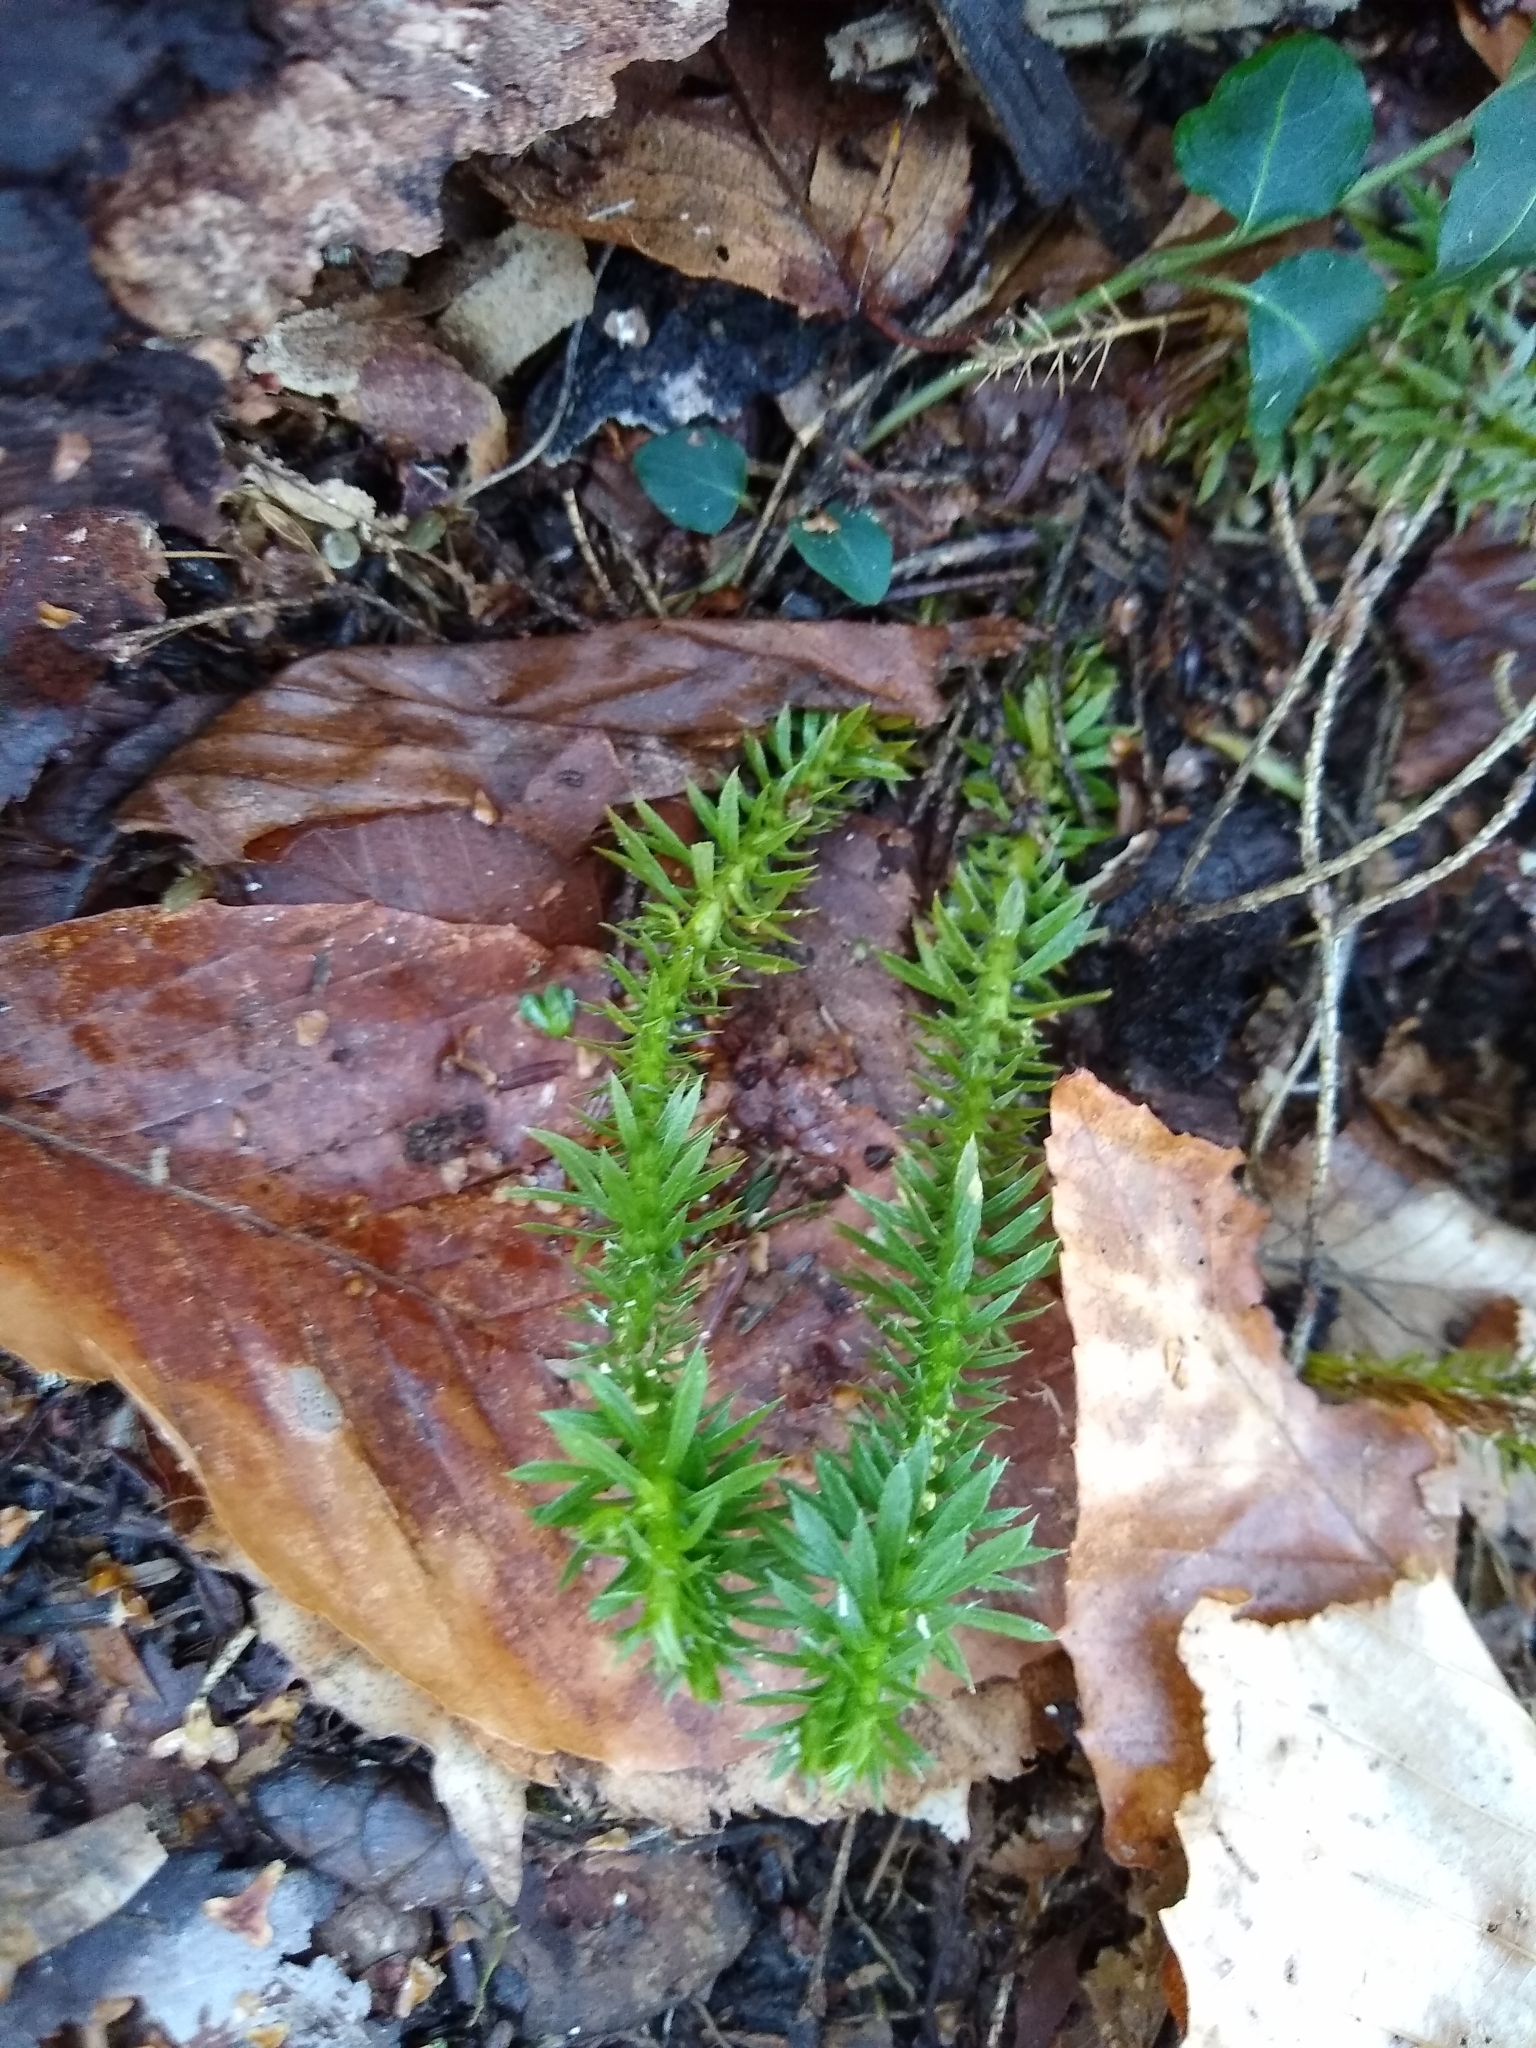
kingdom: Plantae
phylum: Tracheophyta
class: Lycopodiopsida
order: Lycopodiales
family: Lycopodiaceae
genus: Huperzia
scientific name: Huperzia lucidula
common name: Shining clubmoss
